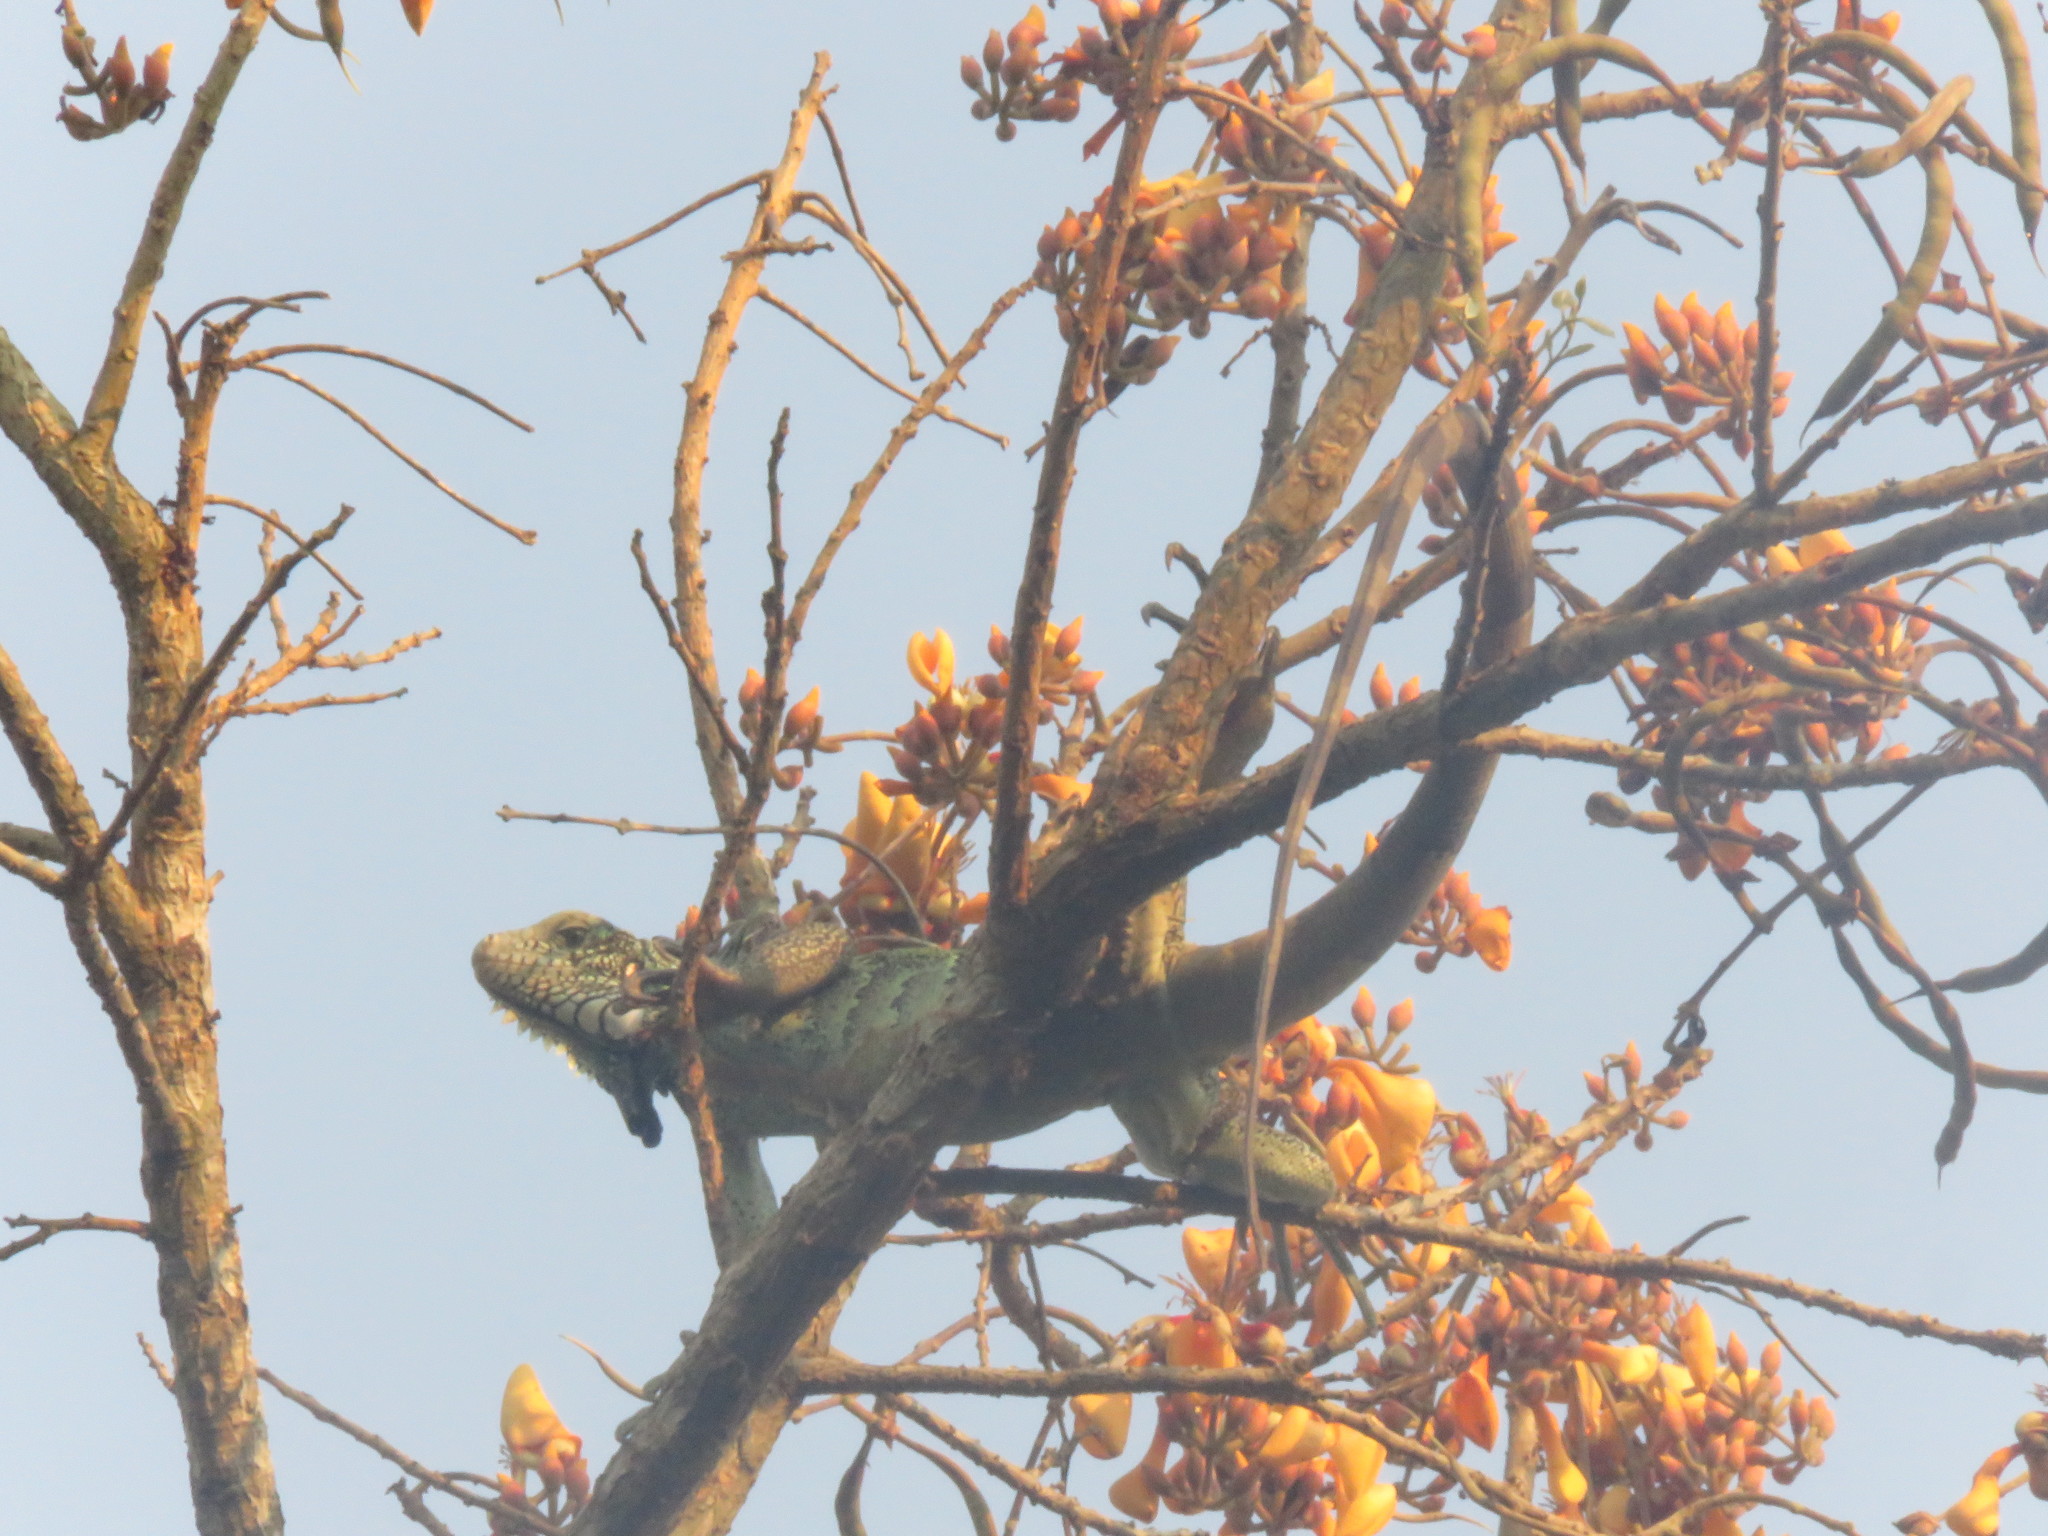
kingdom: Animalia
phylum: Chordata
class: Squamata
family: Iguanidae
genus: Iguana
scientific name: Iguana iguana
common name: Green iguana
